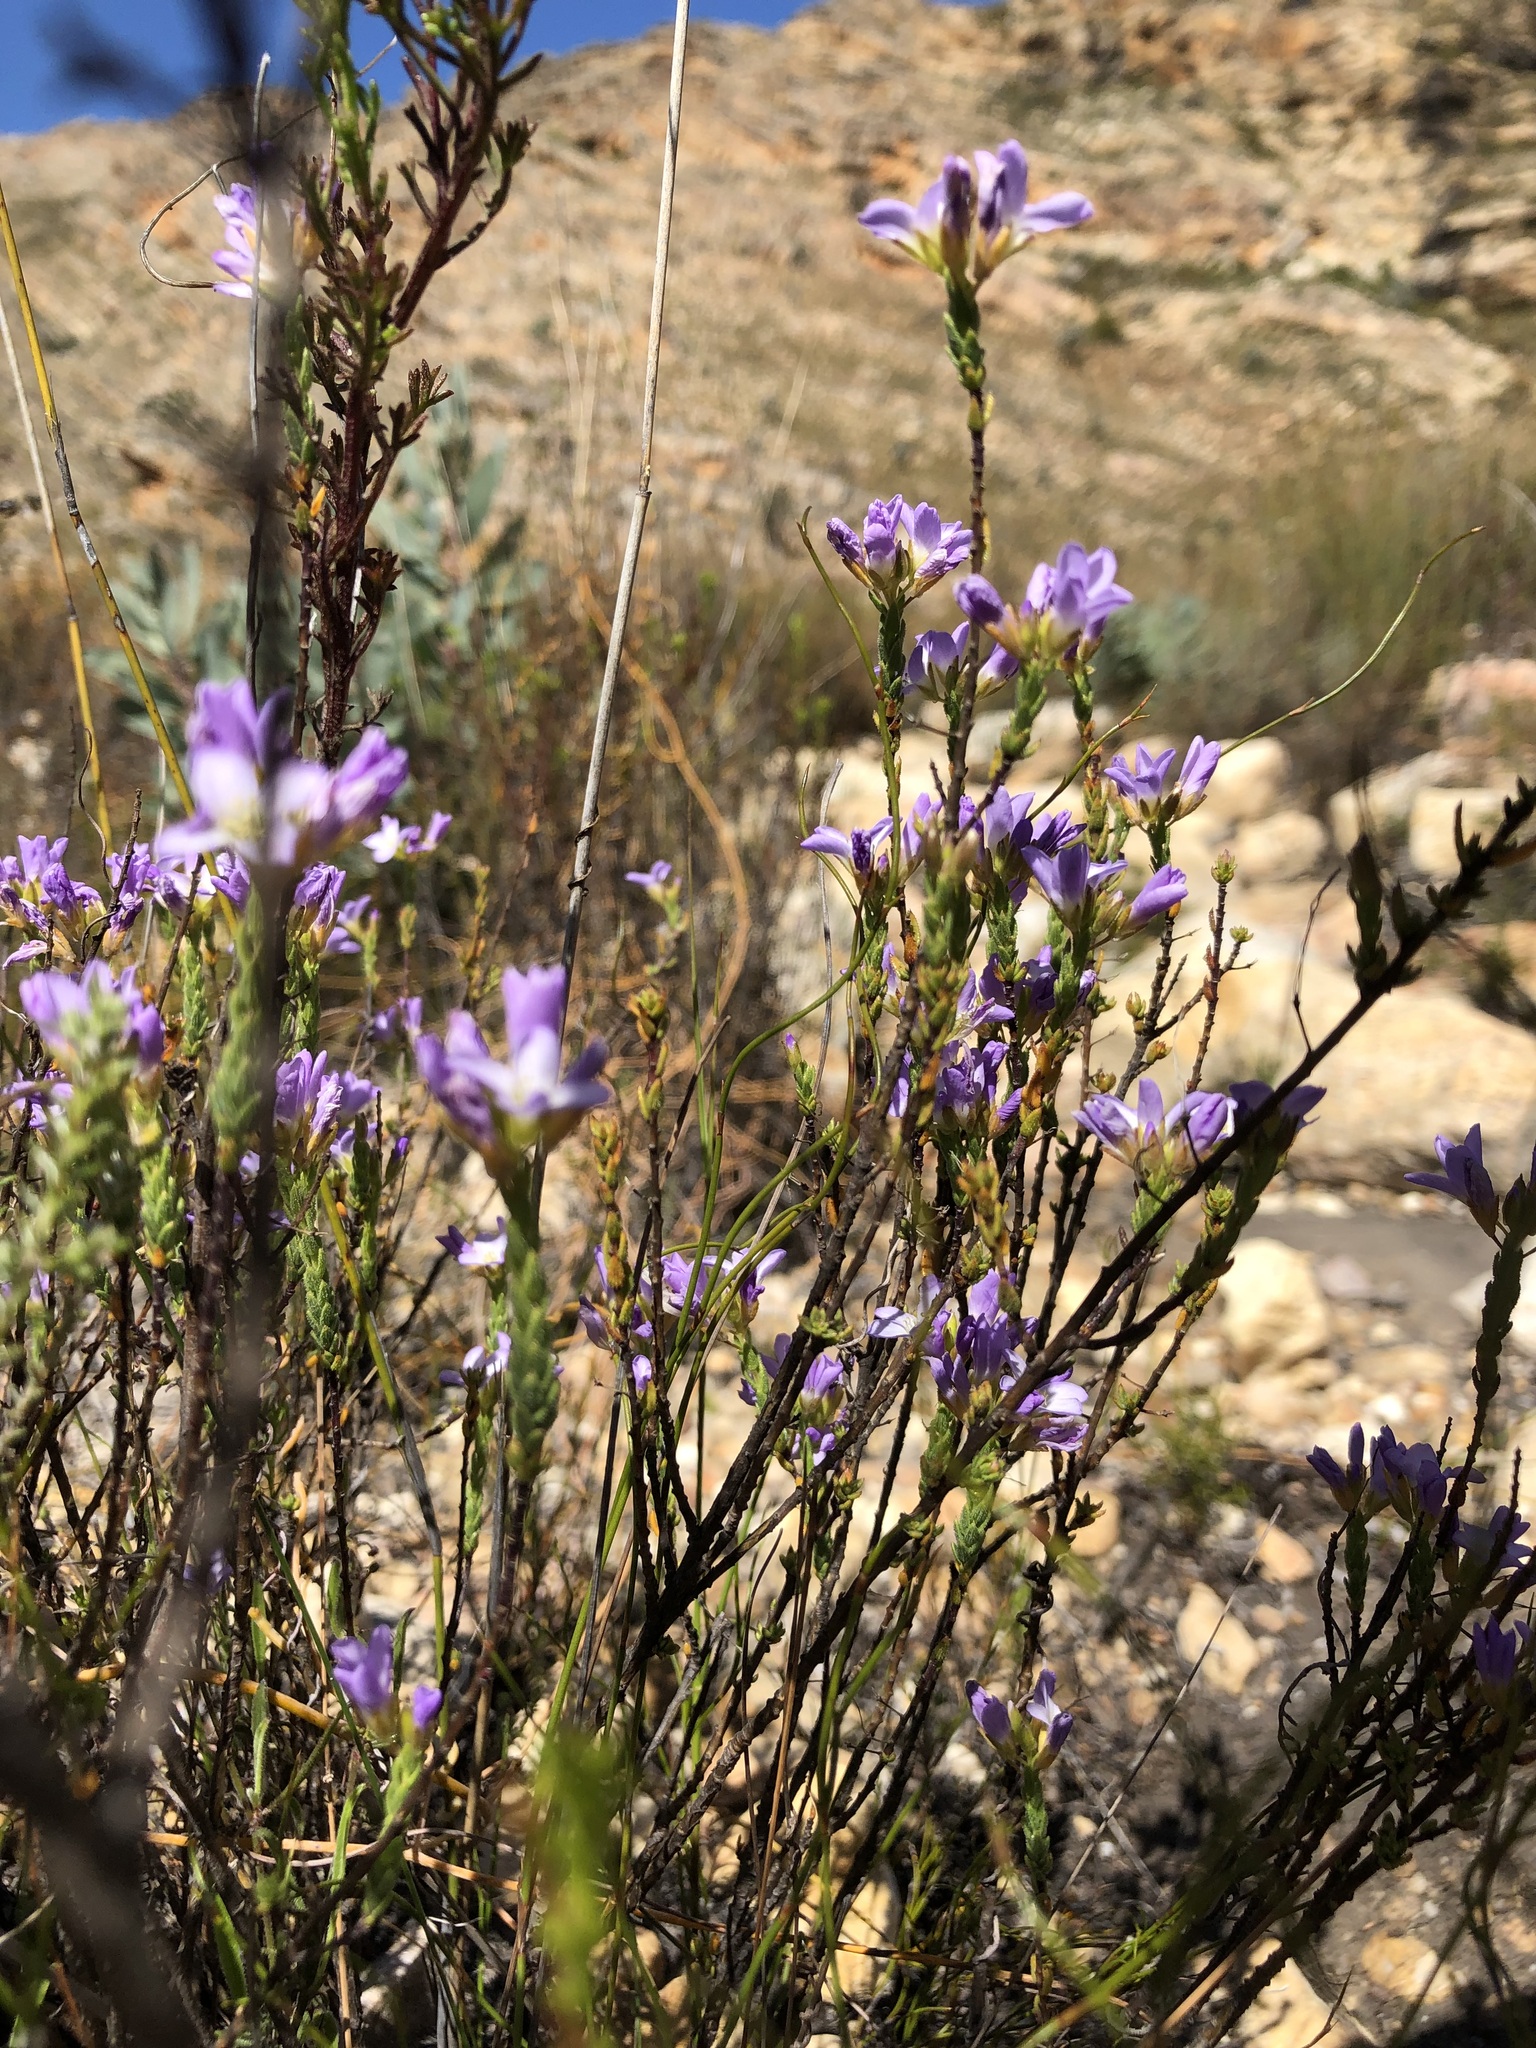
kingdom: Plantae
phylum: Tracheophyta
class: Magnoliopsida
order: Brassicales
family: Brassicaceae
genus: Heliophila
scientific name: Heliophila dregeana
